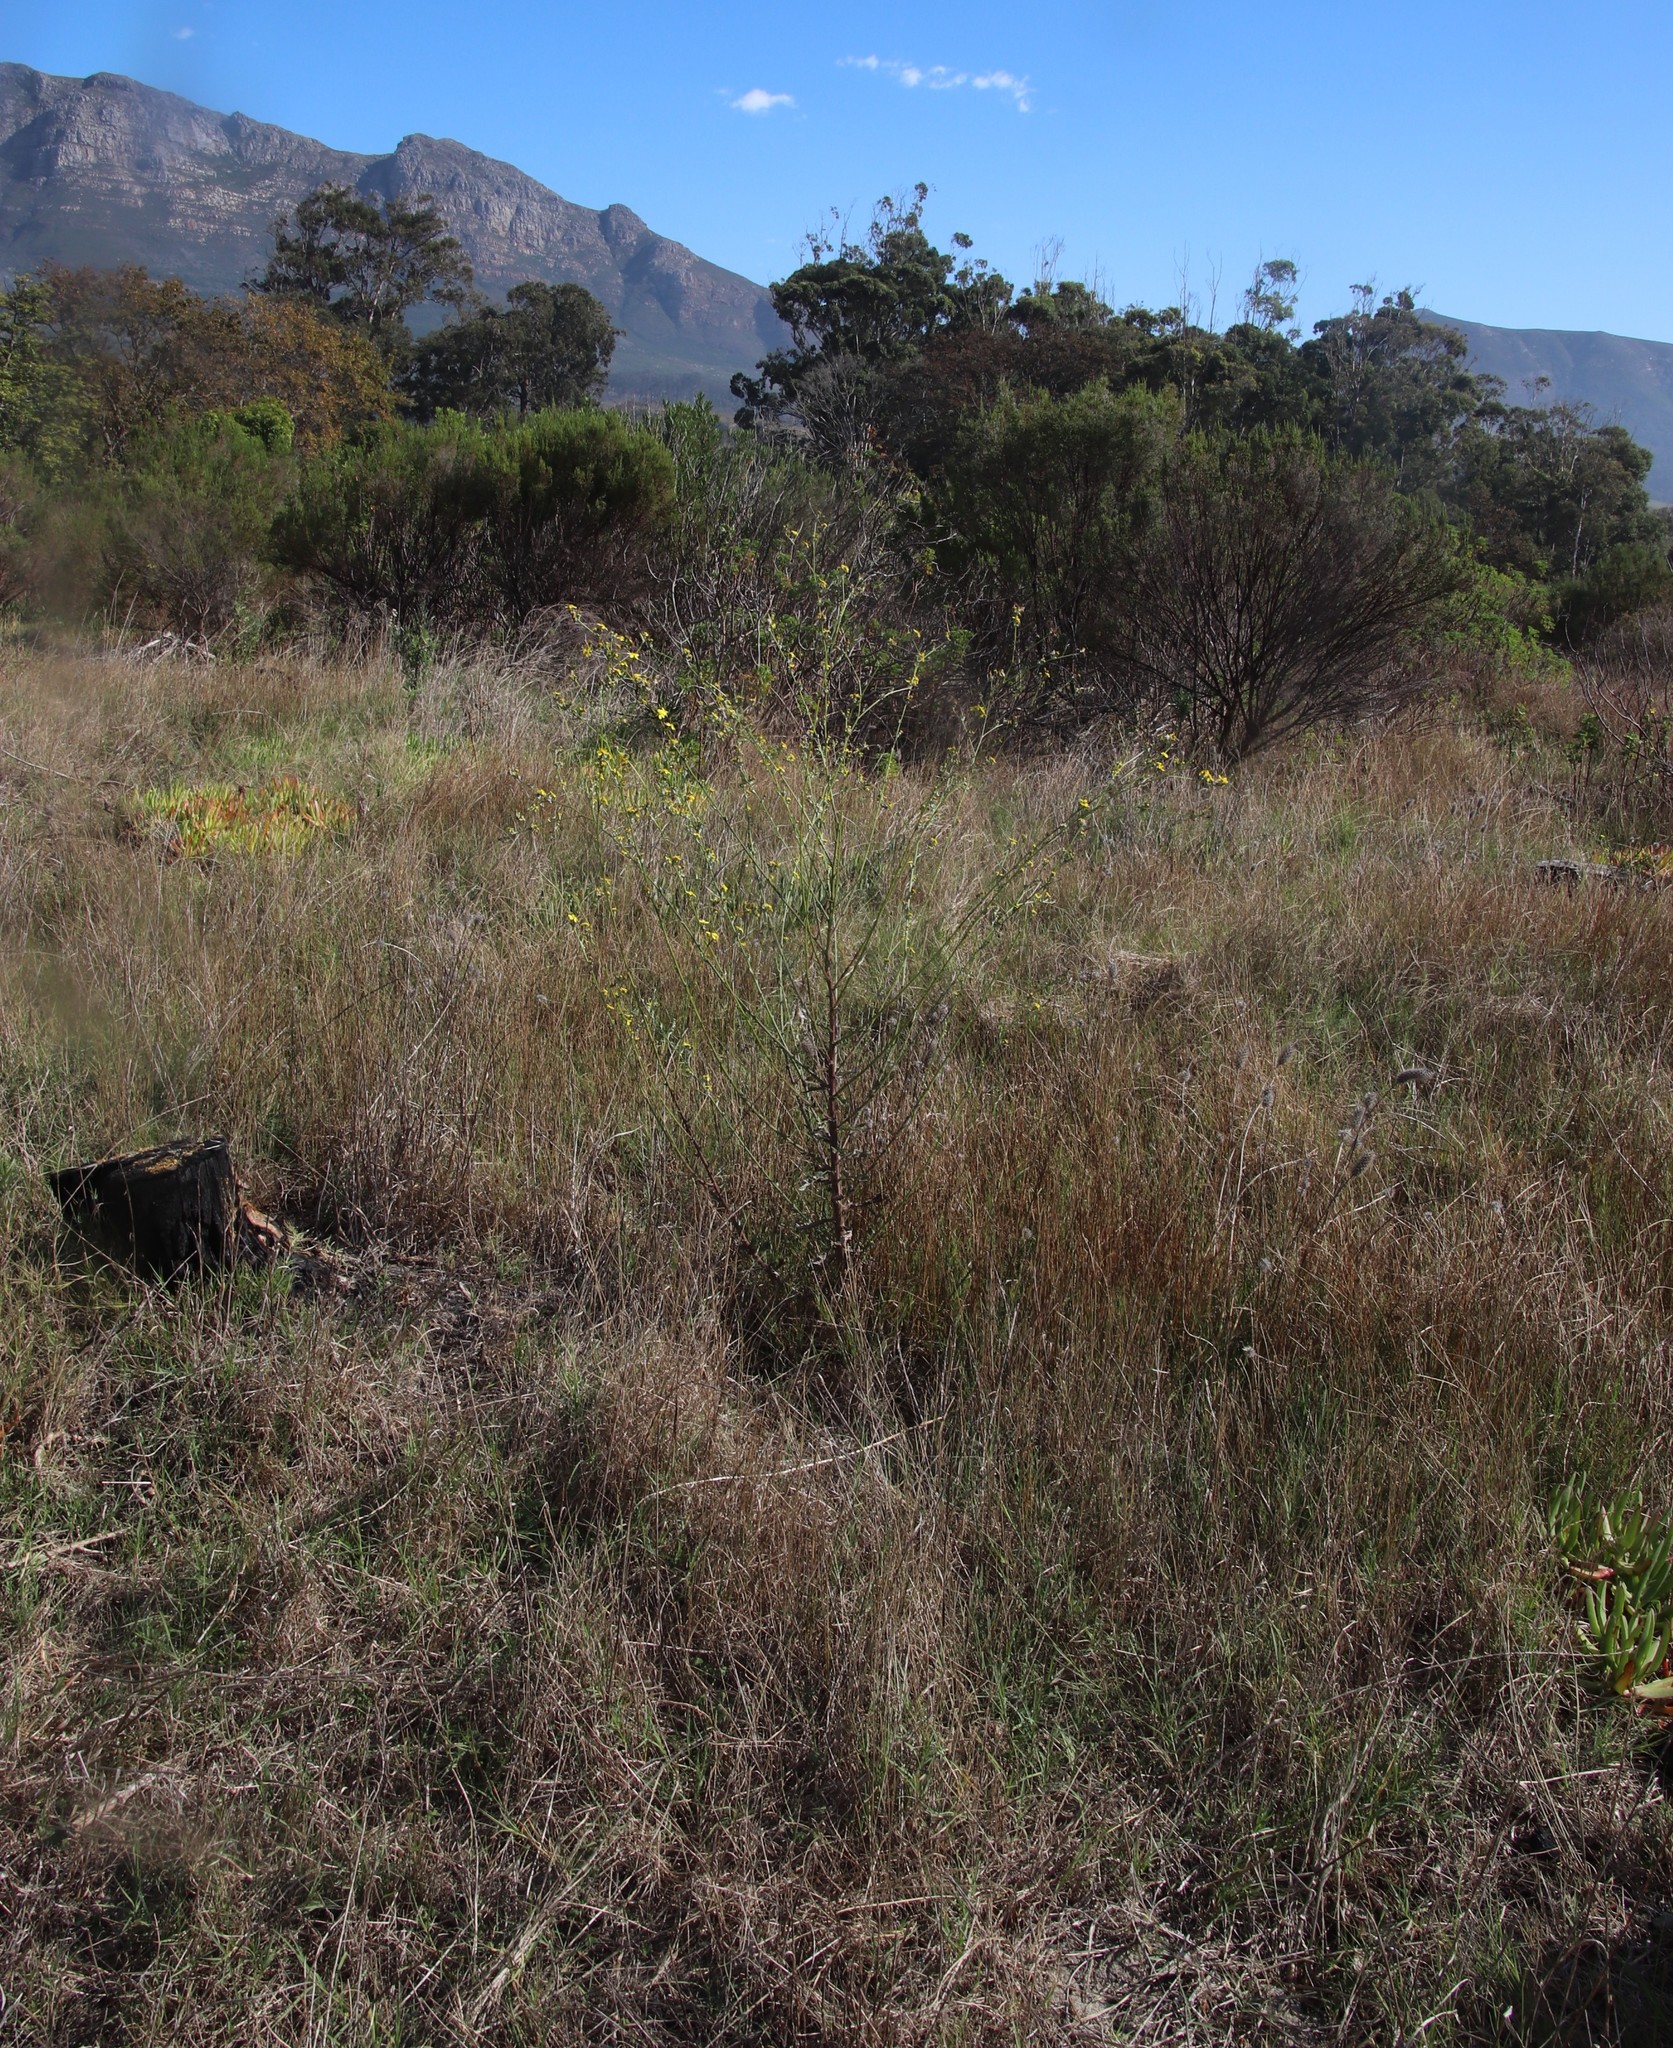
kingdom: Plantae
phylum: Tracheophyta
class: Magnoliopsida
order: Asterales
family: Asteraceae
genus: Senecio
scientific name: Senecio pubigerus
